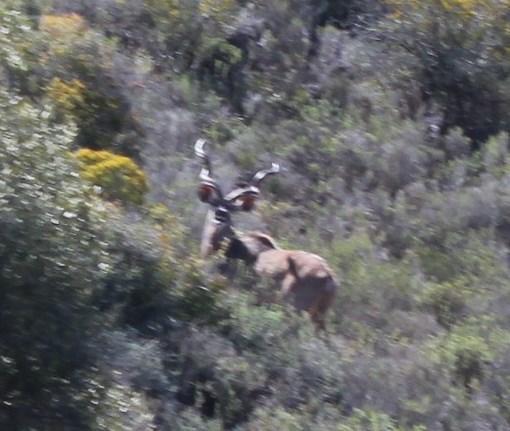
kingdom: Animalia
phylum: Chordata
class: Mammalia
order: Artiodactyla
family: Bovidae
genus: Tragelaphus
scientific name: Tragelaphus strepsiceros
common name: Greater kudu
